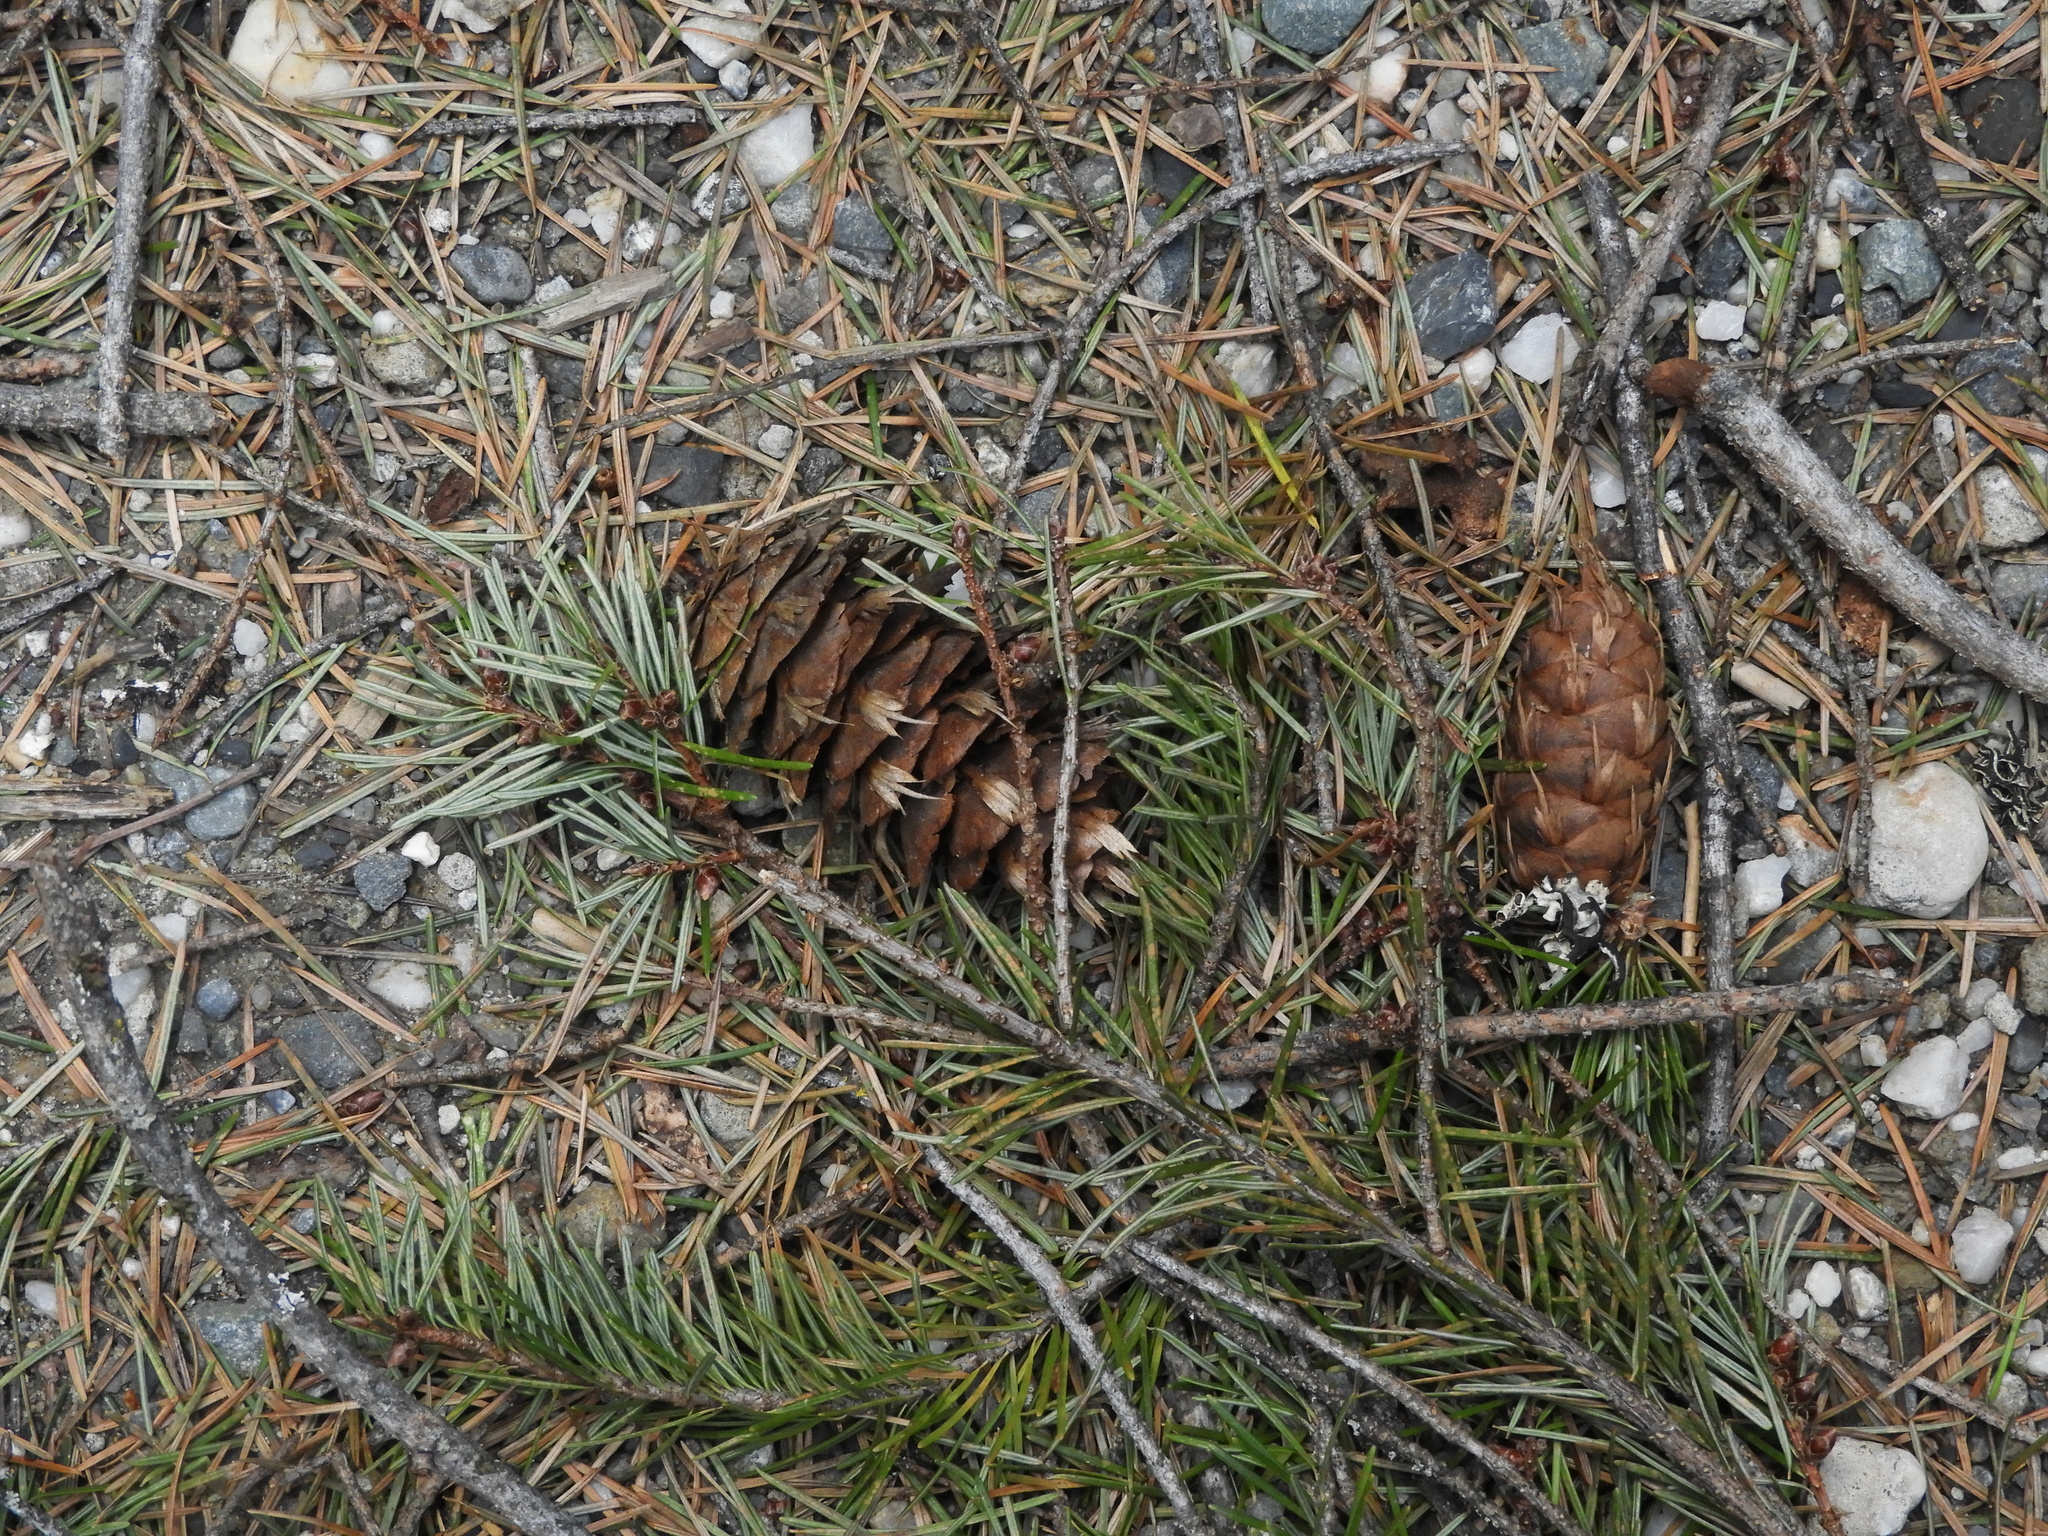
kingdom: Plantae
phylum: Tracheophyta
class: Pinopsida
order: Pinales
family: Pinaceae
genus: Pseudotsuga
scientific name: Pseudotsuga menziesii
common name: Douglas fir
